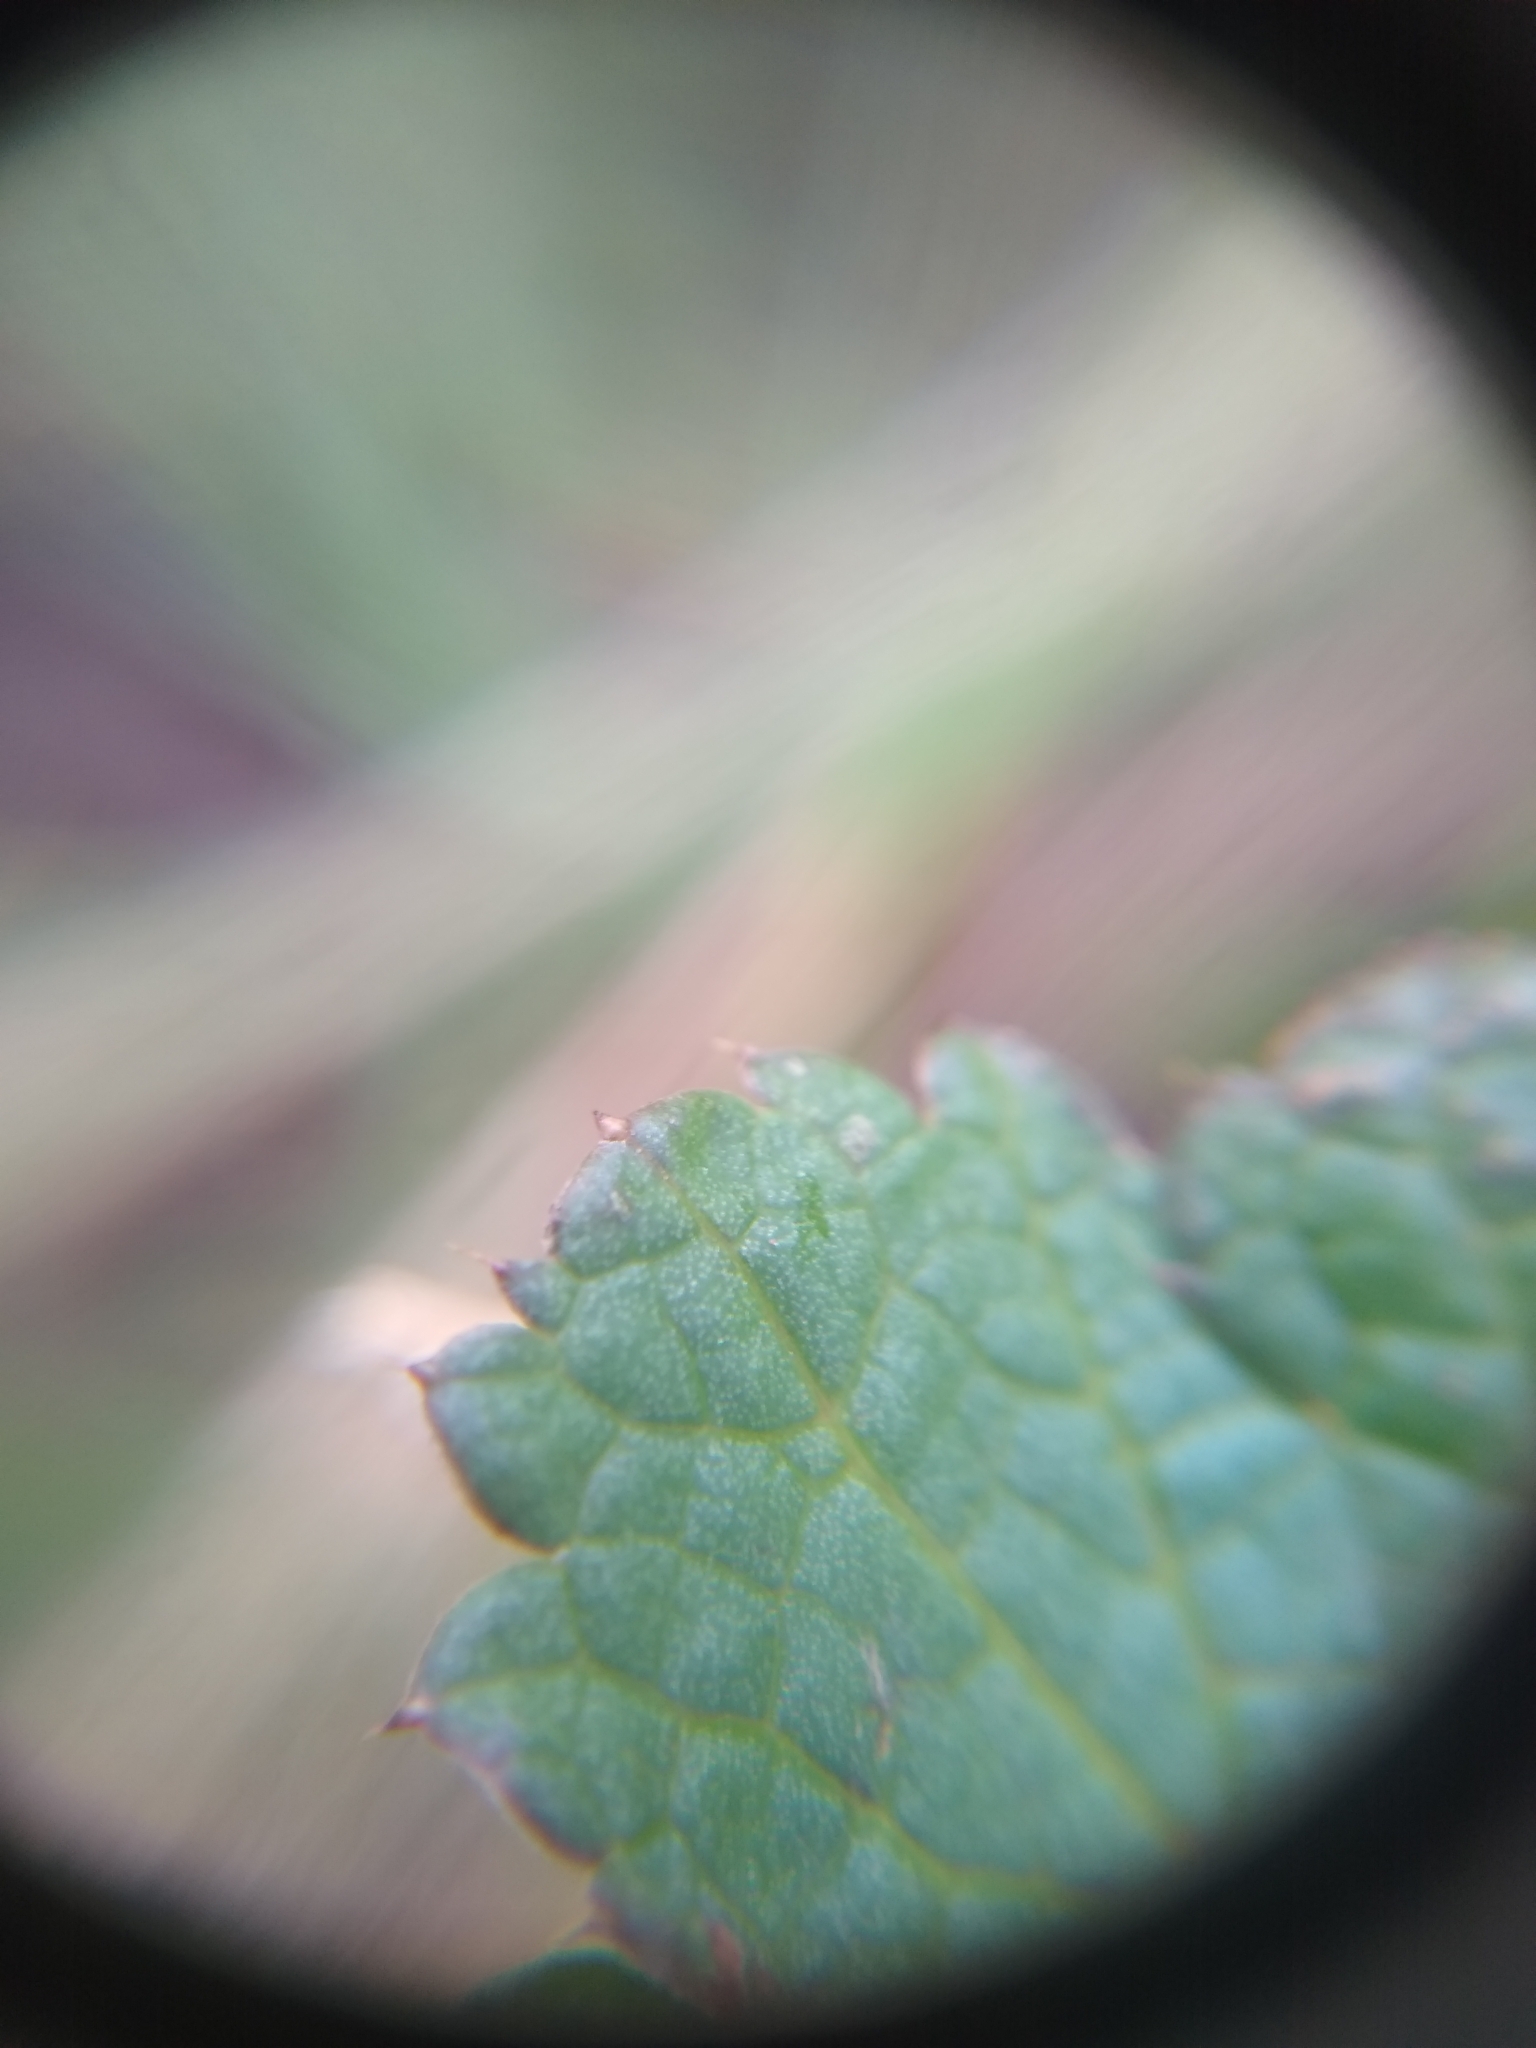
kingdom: Plantae
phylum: Tracheophyta
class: Magnoliopsida
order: Apiales
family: Apiaceae
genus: Sanicula
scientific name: Sanicula crassicaulis
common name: Western snakeroot
